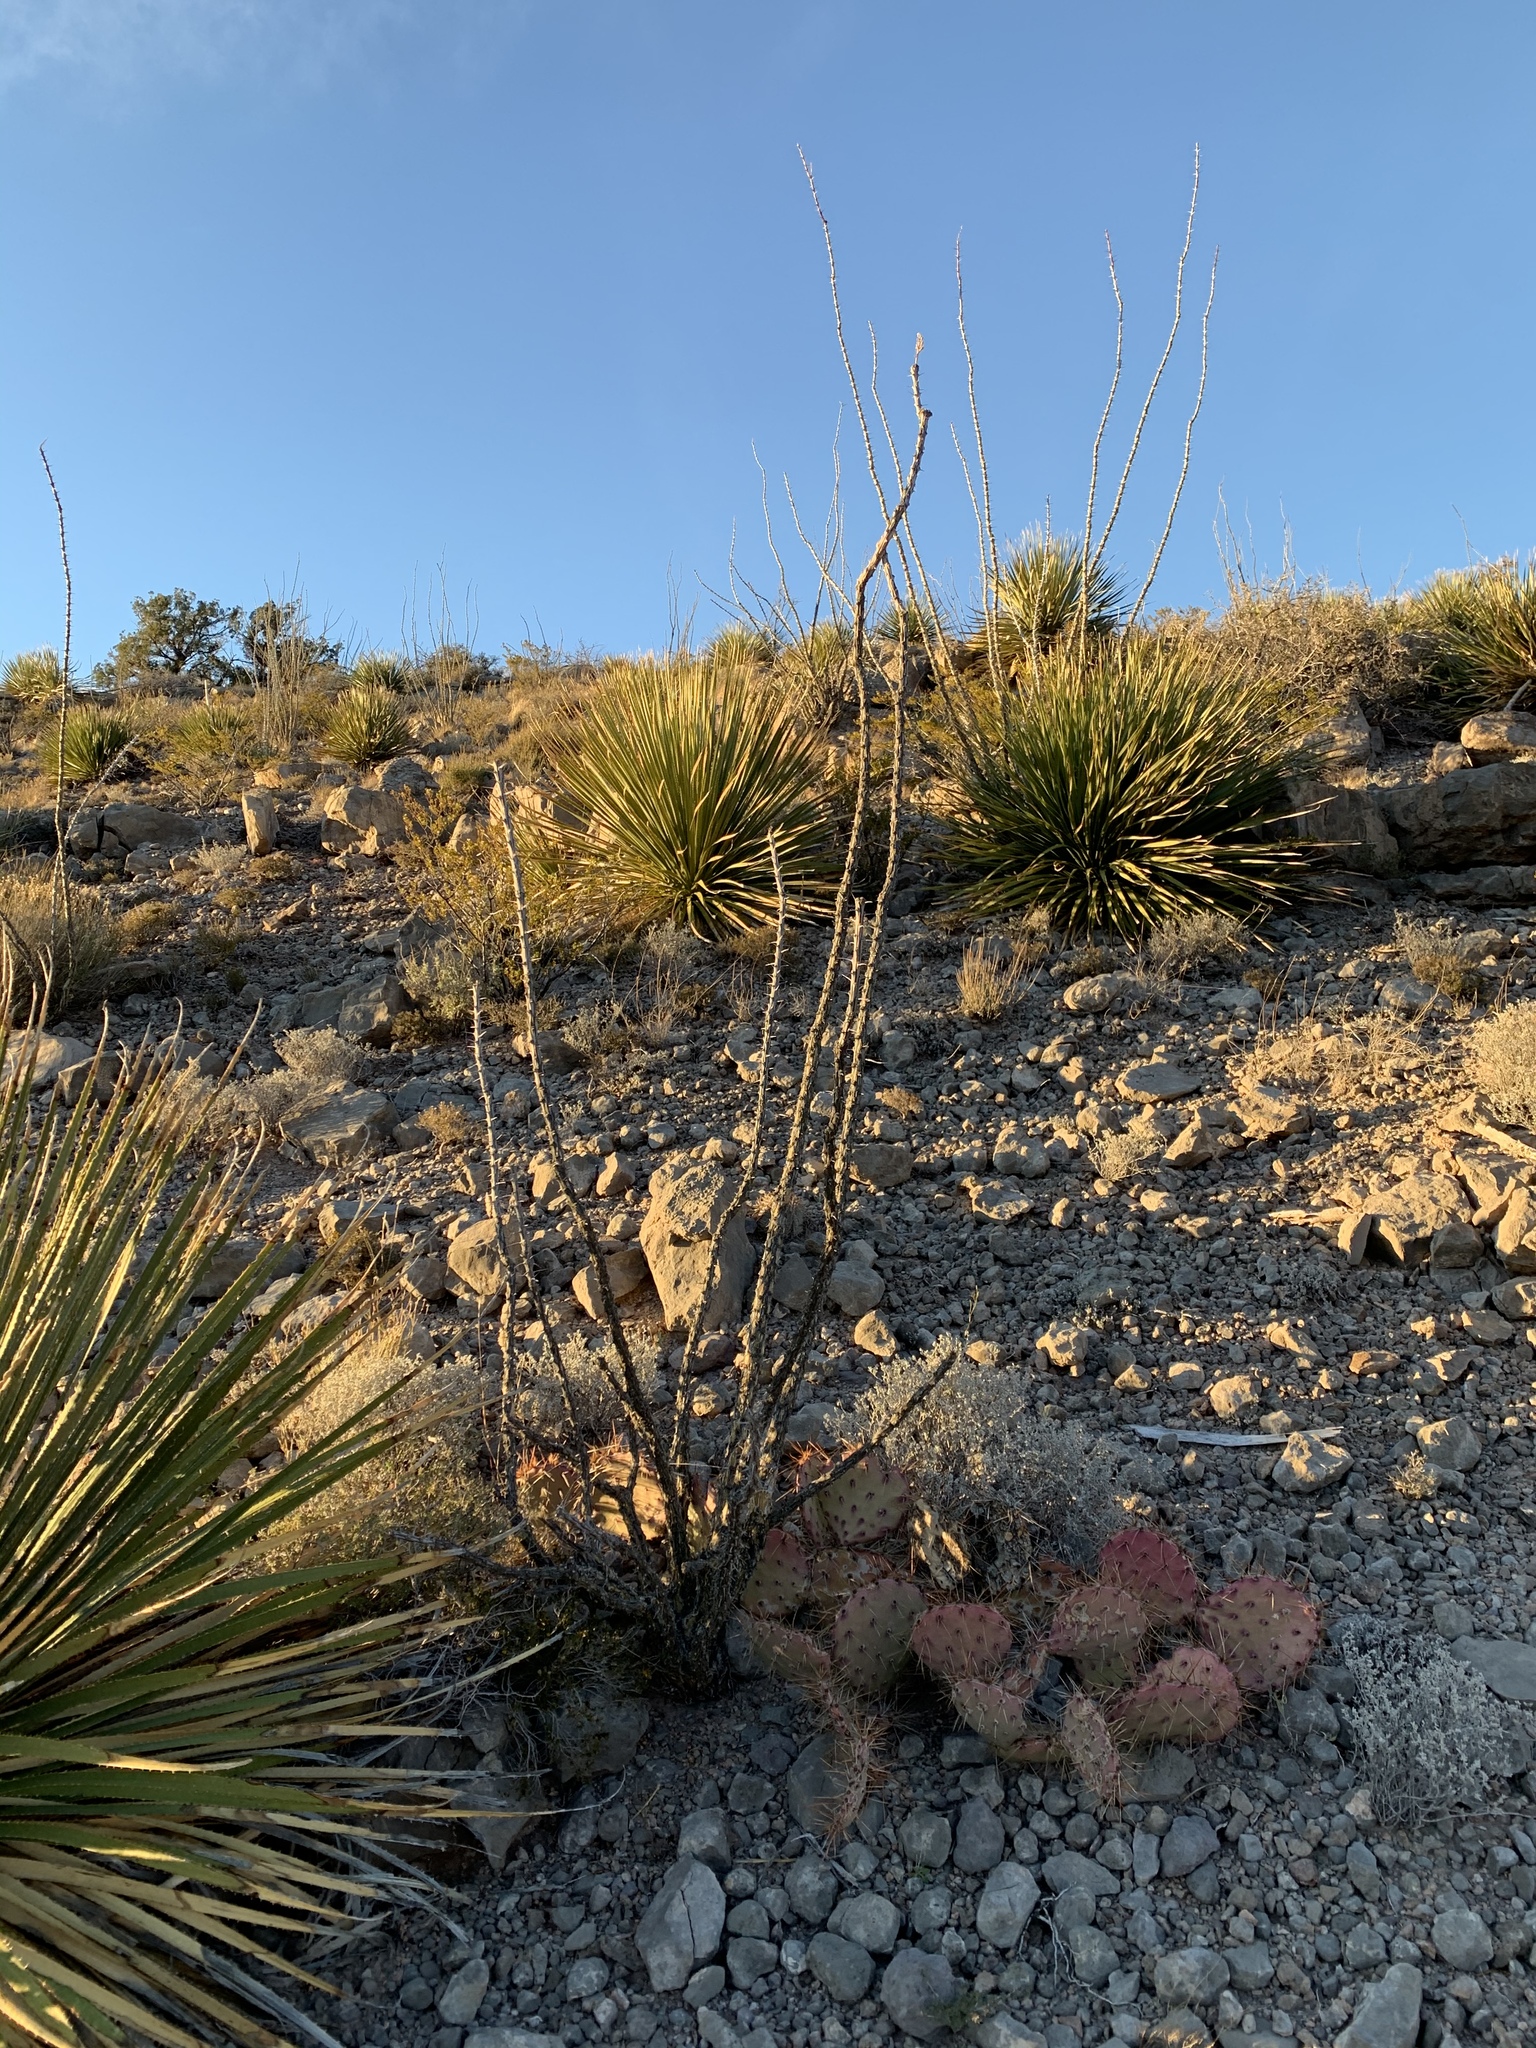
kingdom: Plantae
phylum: Tracheophyta
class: Magnoliopsida
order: Ericales
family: Fouquieriaceae
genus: Fouquieria
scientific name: Fouquieria splendens
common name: Vine-cactus
